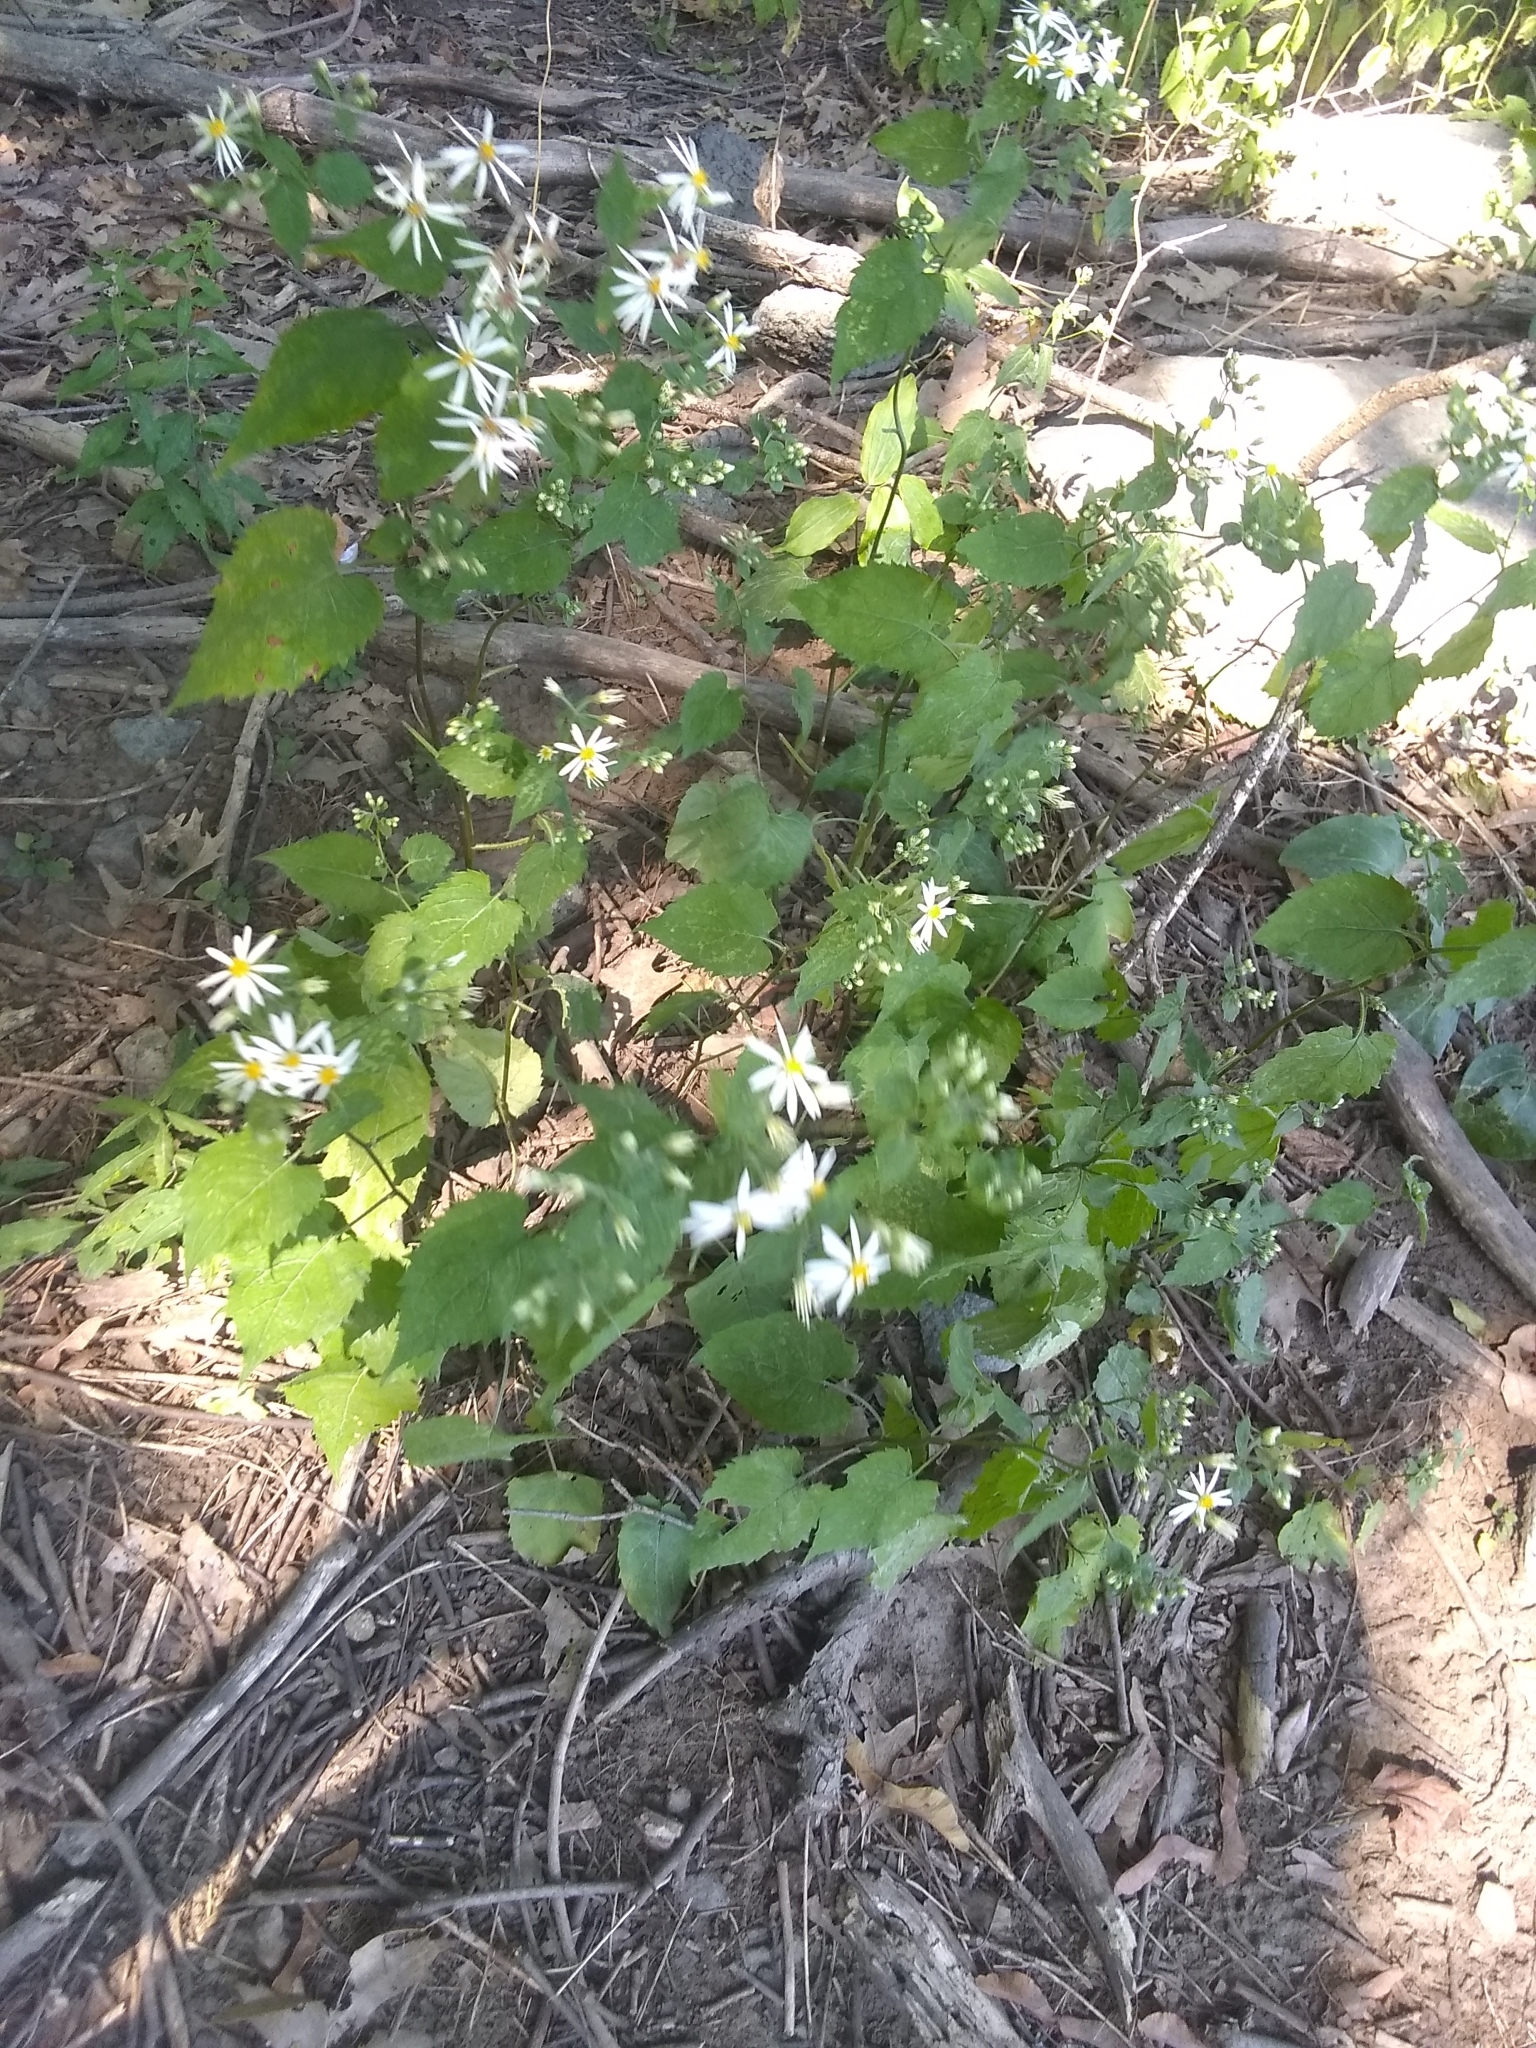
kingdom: Plantae
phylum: Tracheophyta
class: Magnoliopsida
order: Asterales
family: Asteraceae
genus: Eurybia
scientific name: Eurybia divaricata
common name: White wood aster
